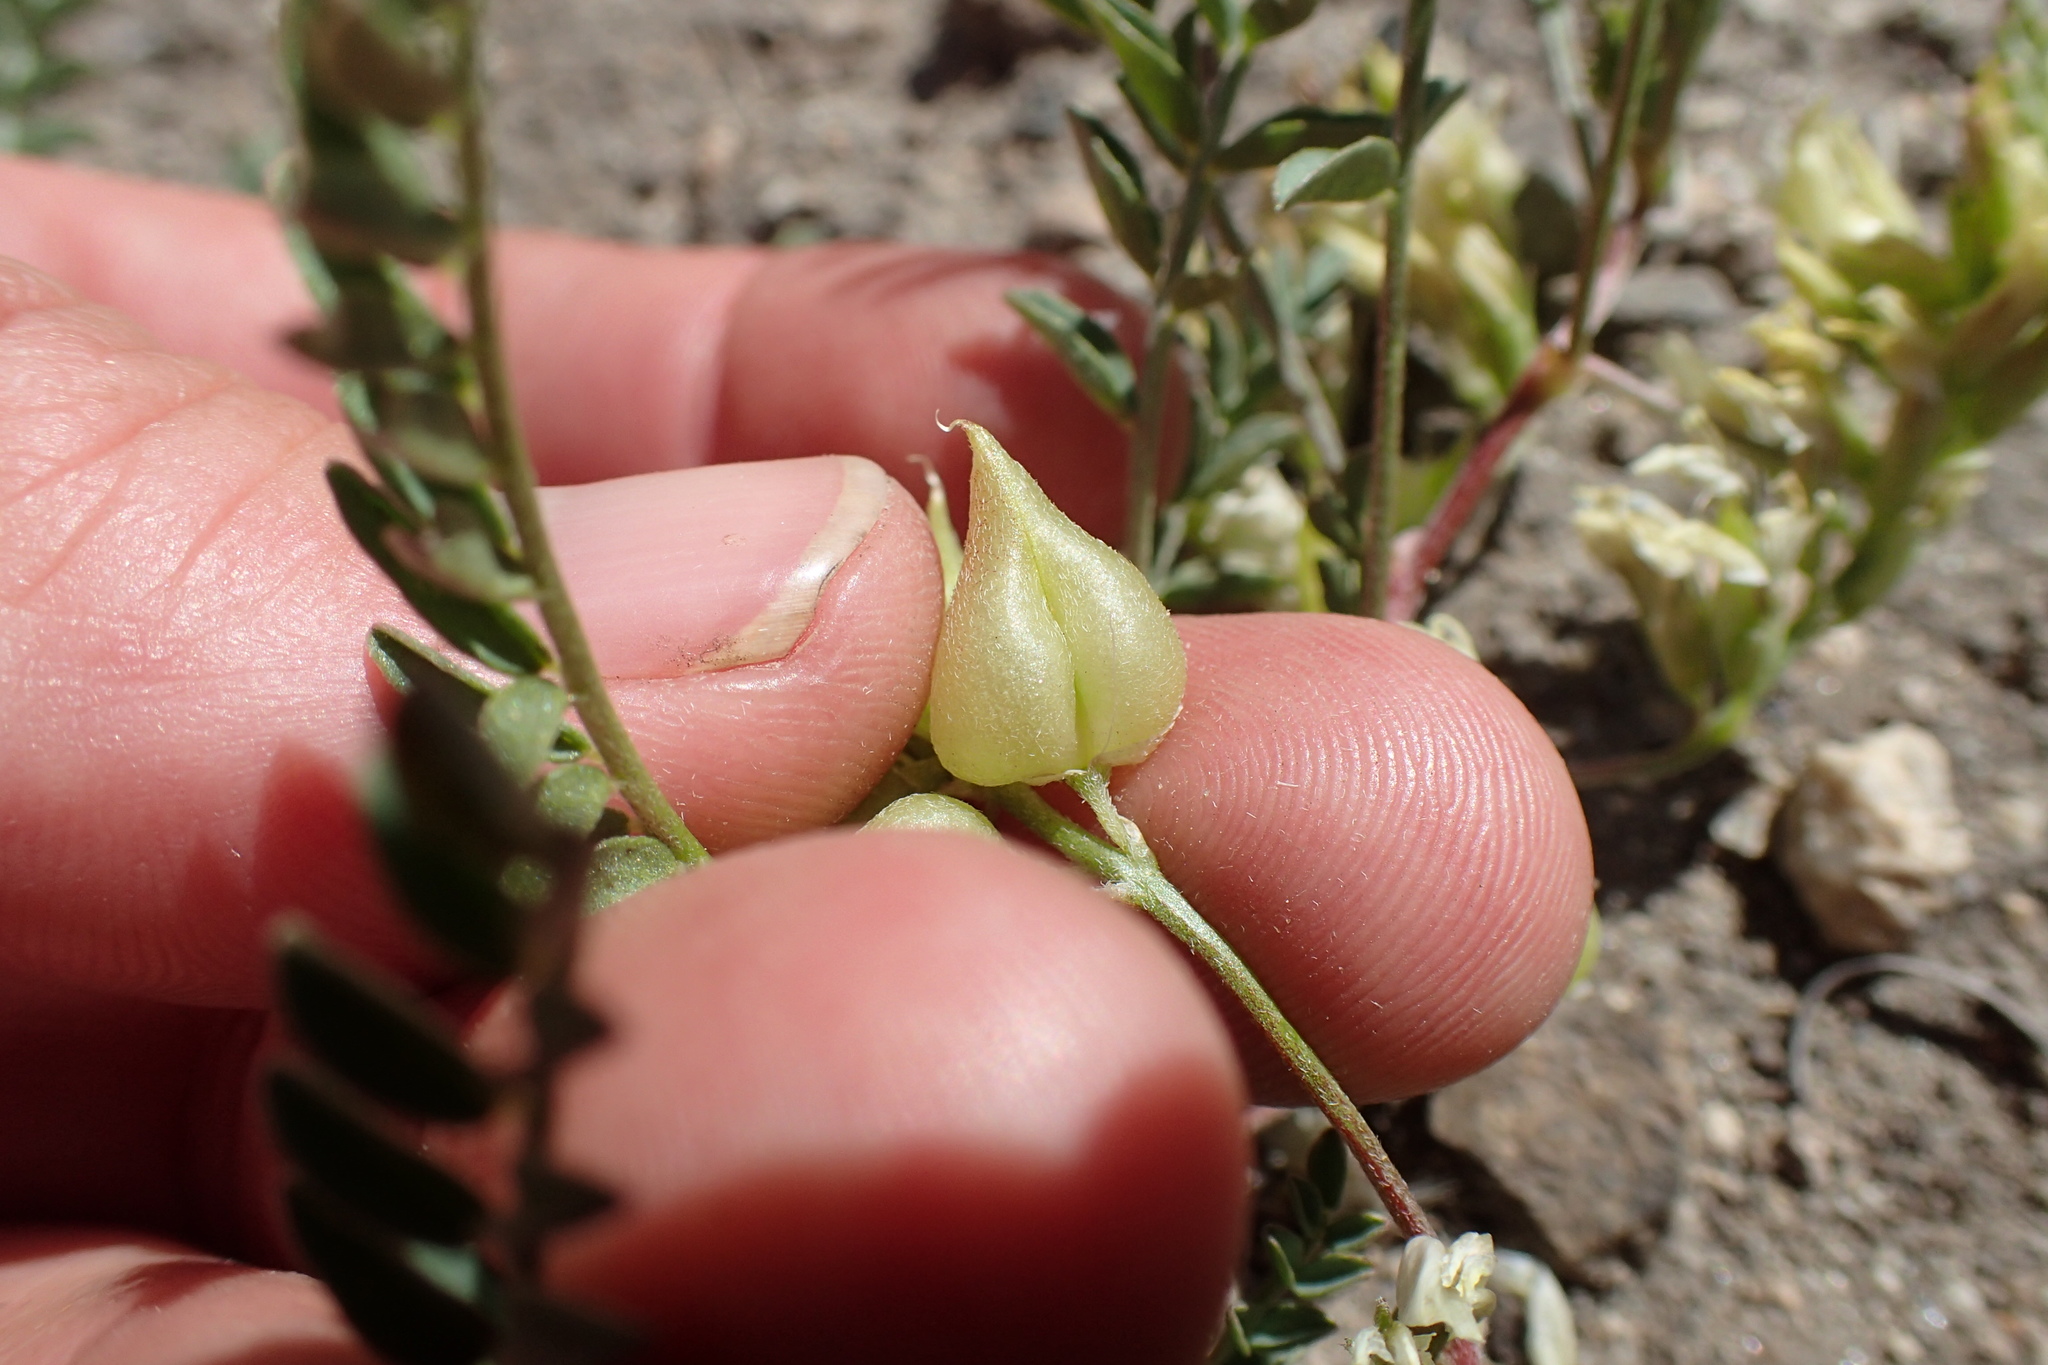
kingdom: Plantae
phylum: Tracheophyta
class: Magnoliopsida
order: Fabales
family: Fabaceae
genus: Astragalus
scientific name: Astragalus lentiginosus
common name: Freckled milkvetch
